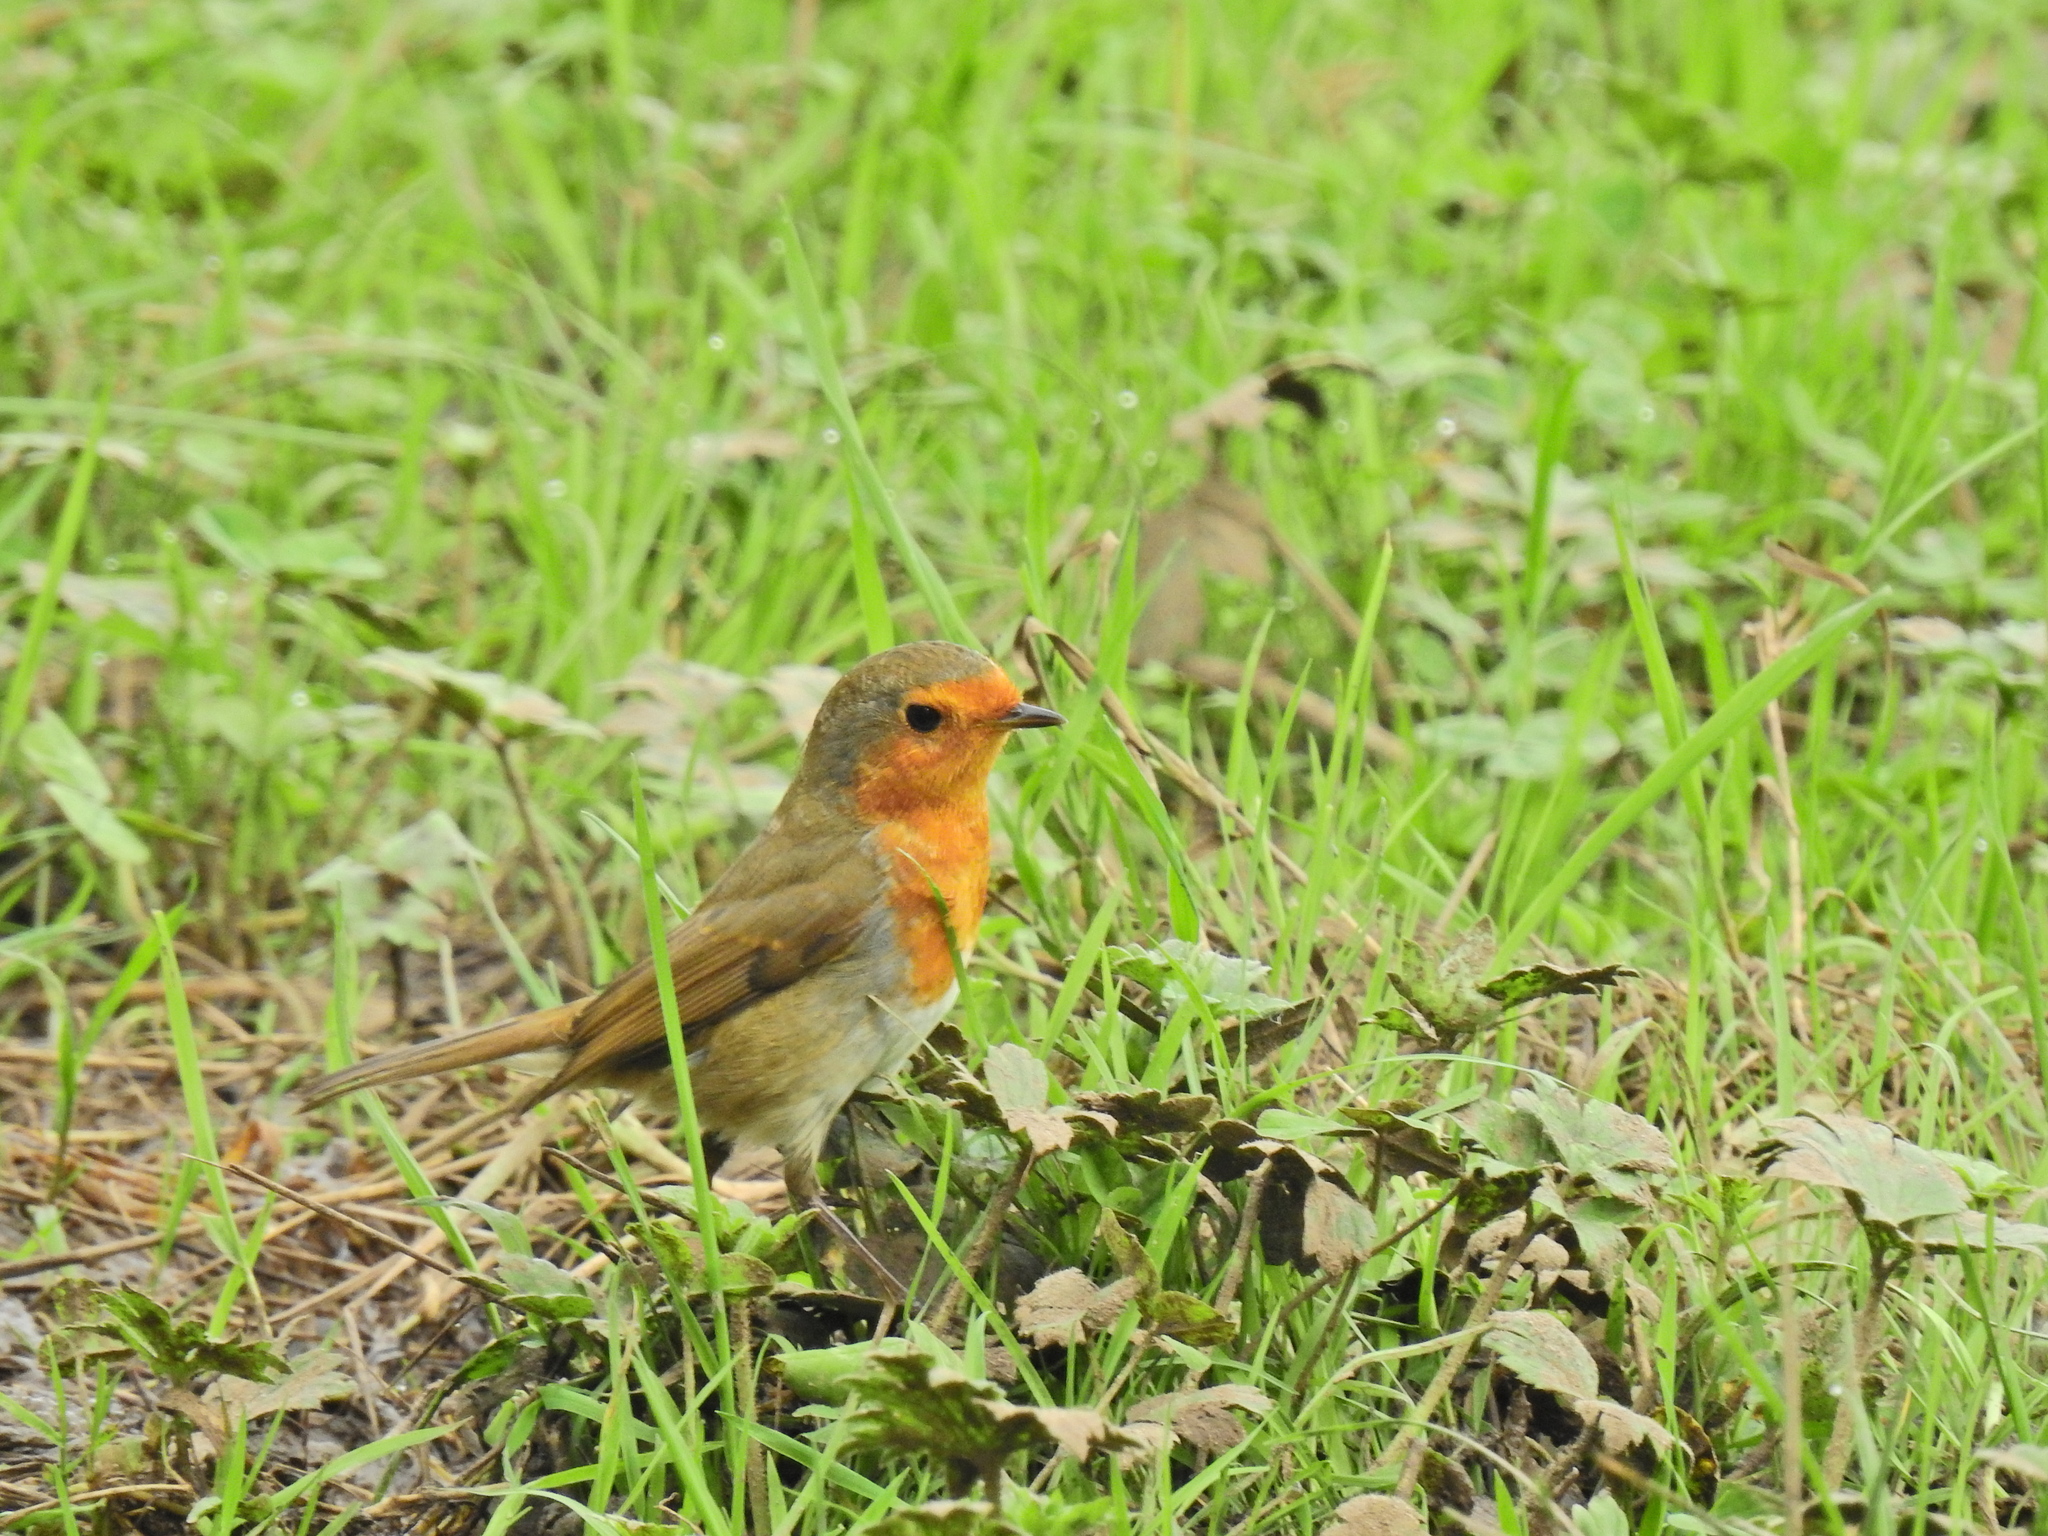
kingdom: Animalia
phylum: Chordata
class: Aves
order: Passeriformes
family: Muscicapidae
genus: Erithacus
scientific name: Erithacus rubecula
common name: European robin
